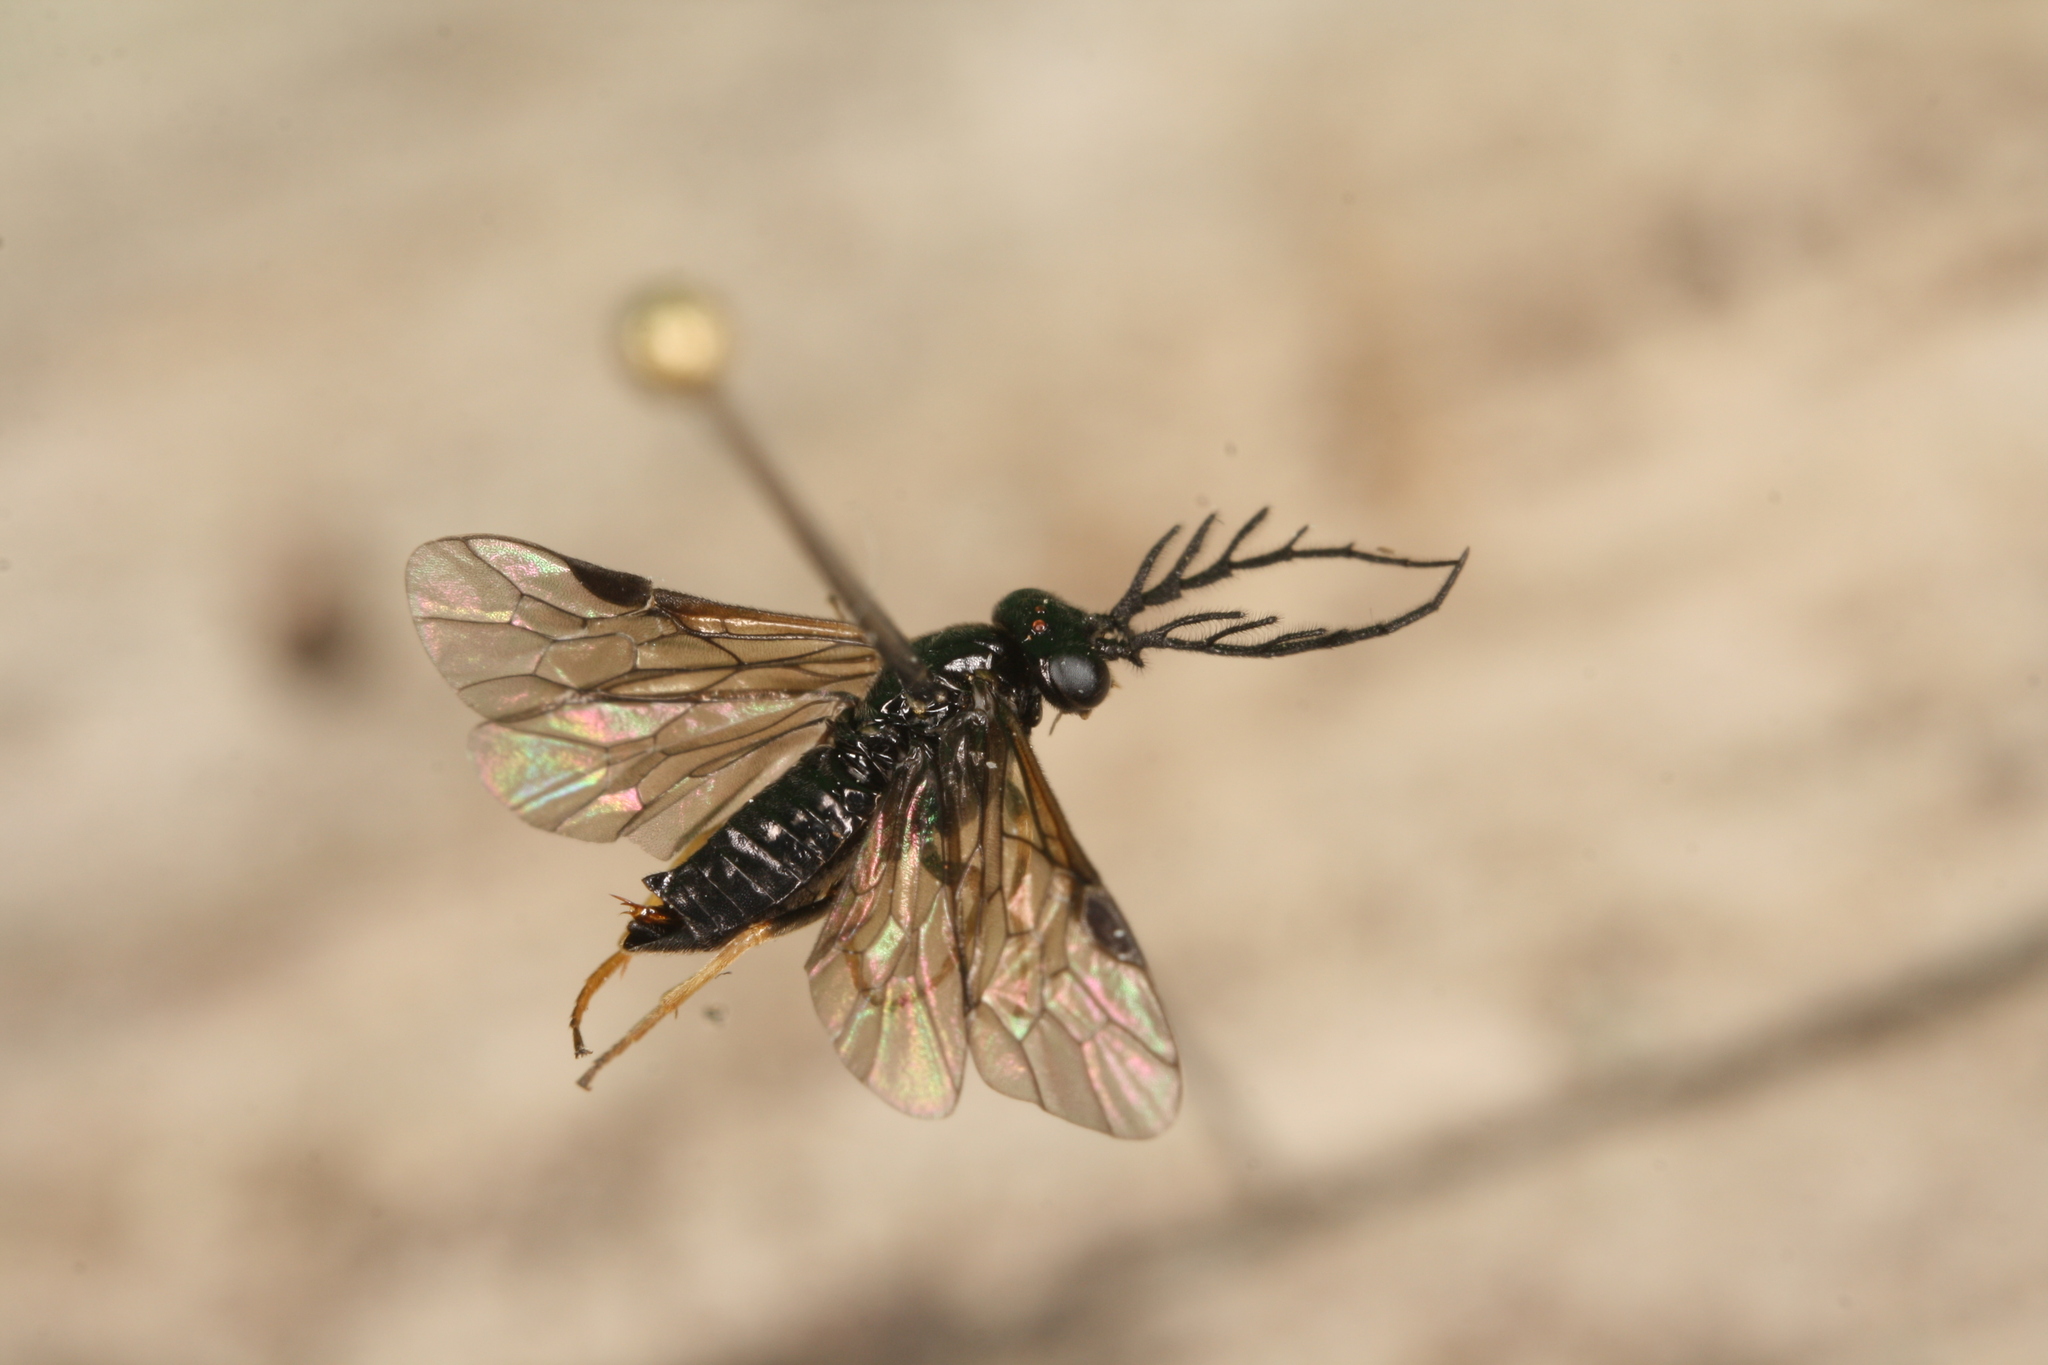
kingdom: Animalia
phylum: Arthropoda
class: Insecta
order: Hymenoptera
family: Tenthredinidae
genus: Cladius
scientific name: Cladius pectinicornis
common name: Sawfly
